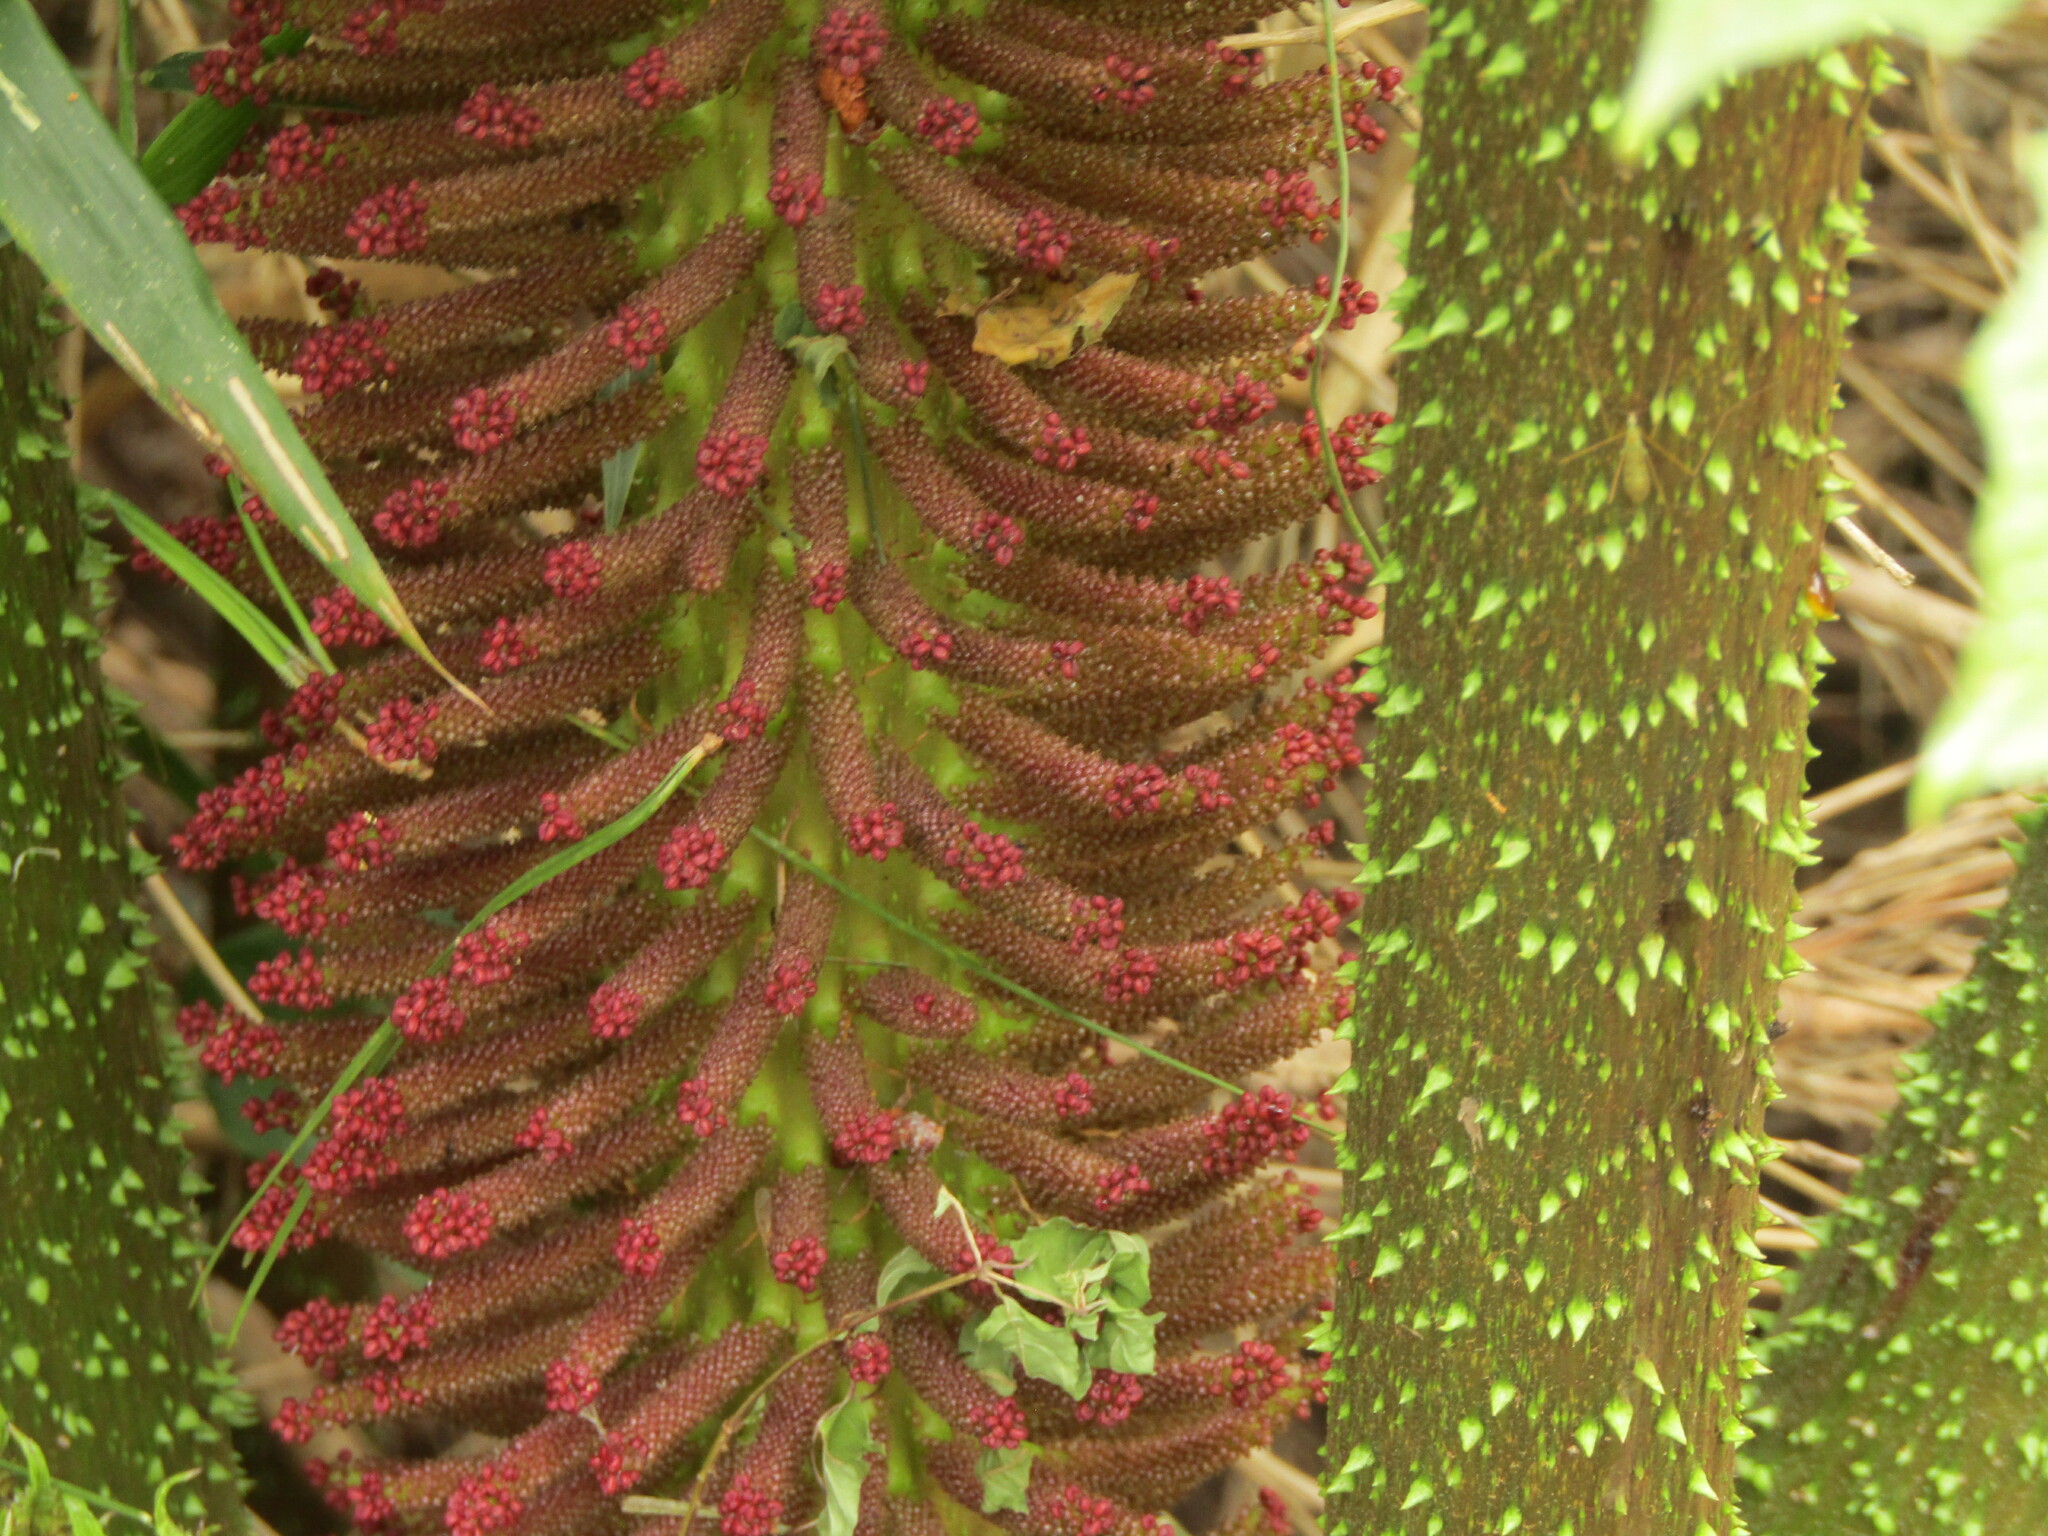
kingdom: Plantae
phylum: Tracheophyta
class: Magnoliopsida
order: Gunnerales
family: Gunneraceae
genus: Gunnera
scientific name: Gunnera tinctoria
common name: Giant-rhubarb
